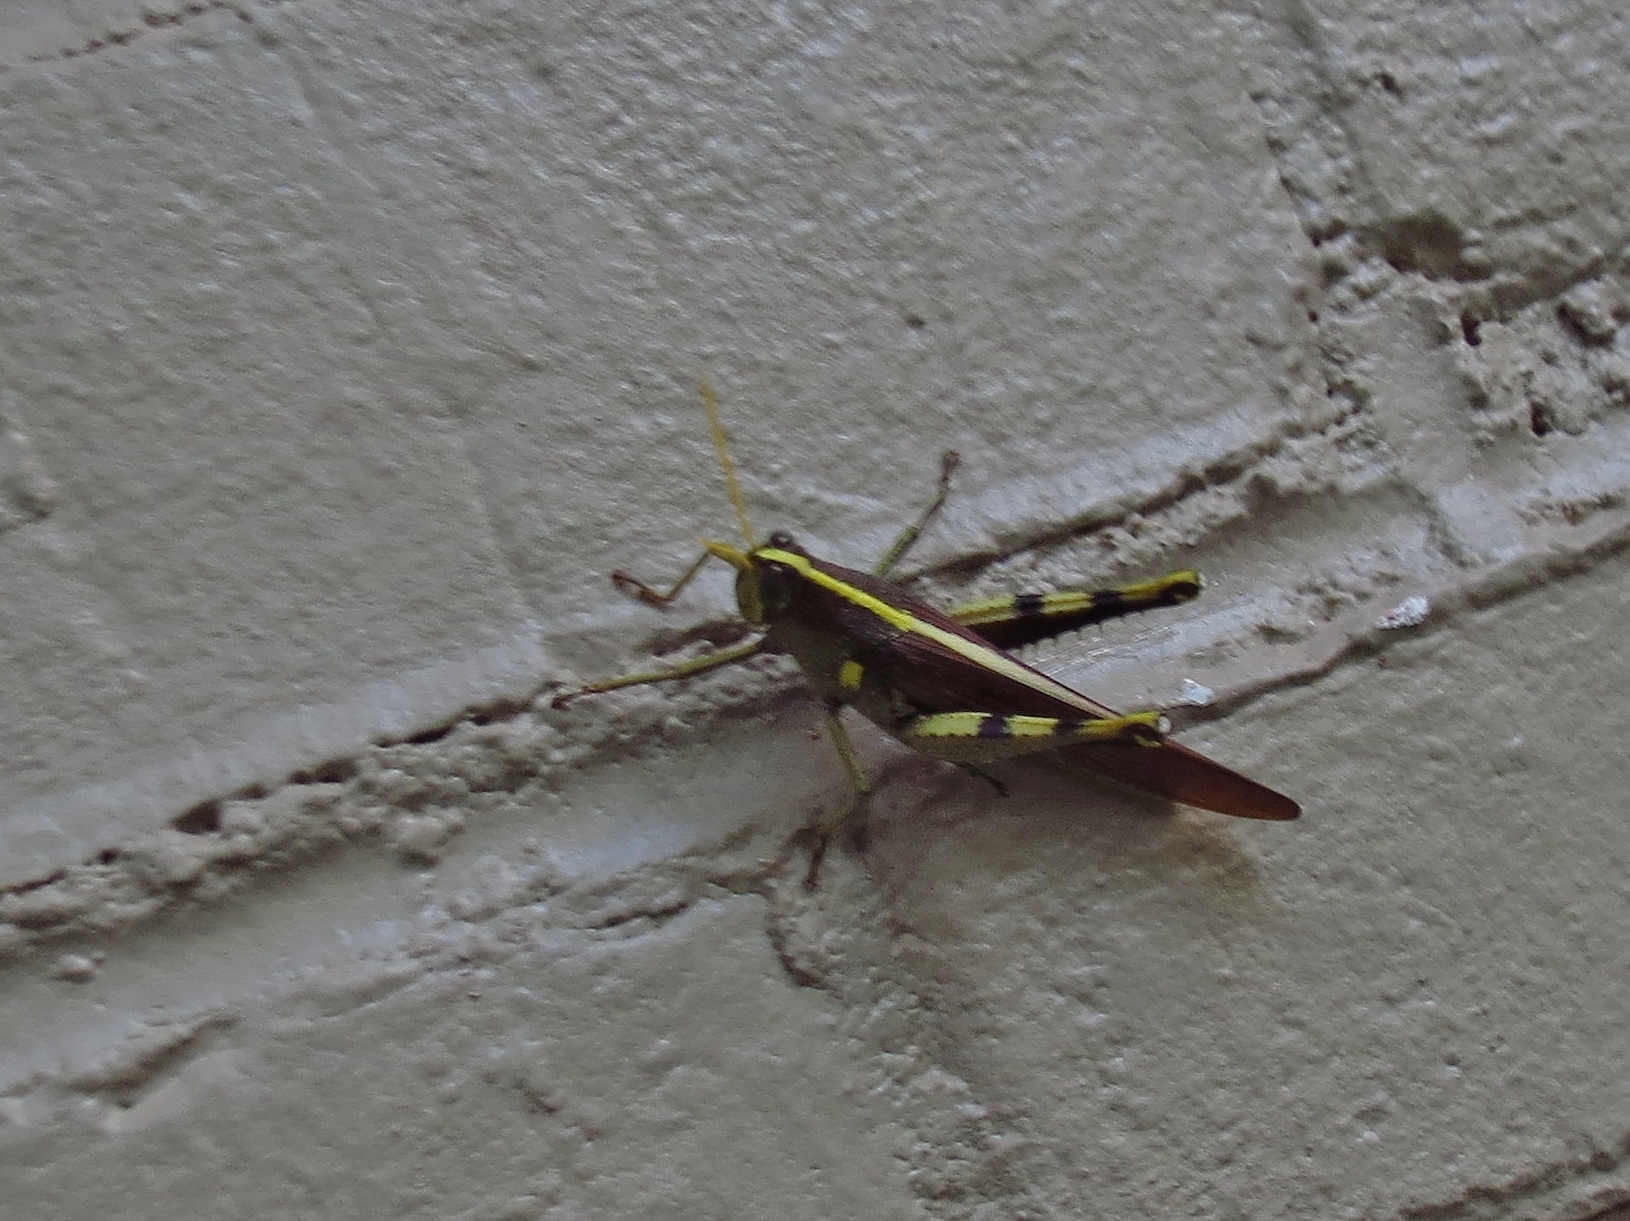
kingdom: Animalia
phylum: Arthropoda
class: Insecta
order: Orthoptera
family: Acrididae
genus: Schistocerca
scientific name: Schistocerca obscura
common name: Obscure bird grasshopper
